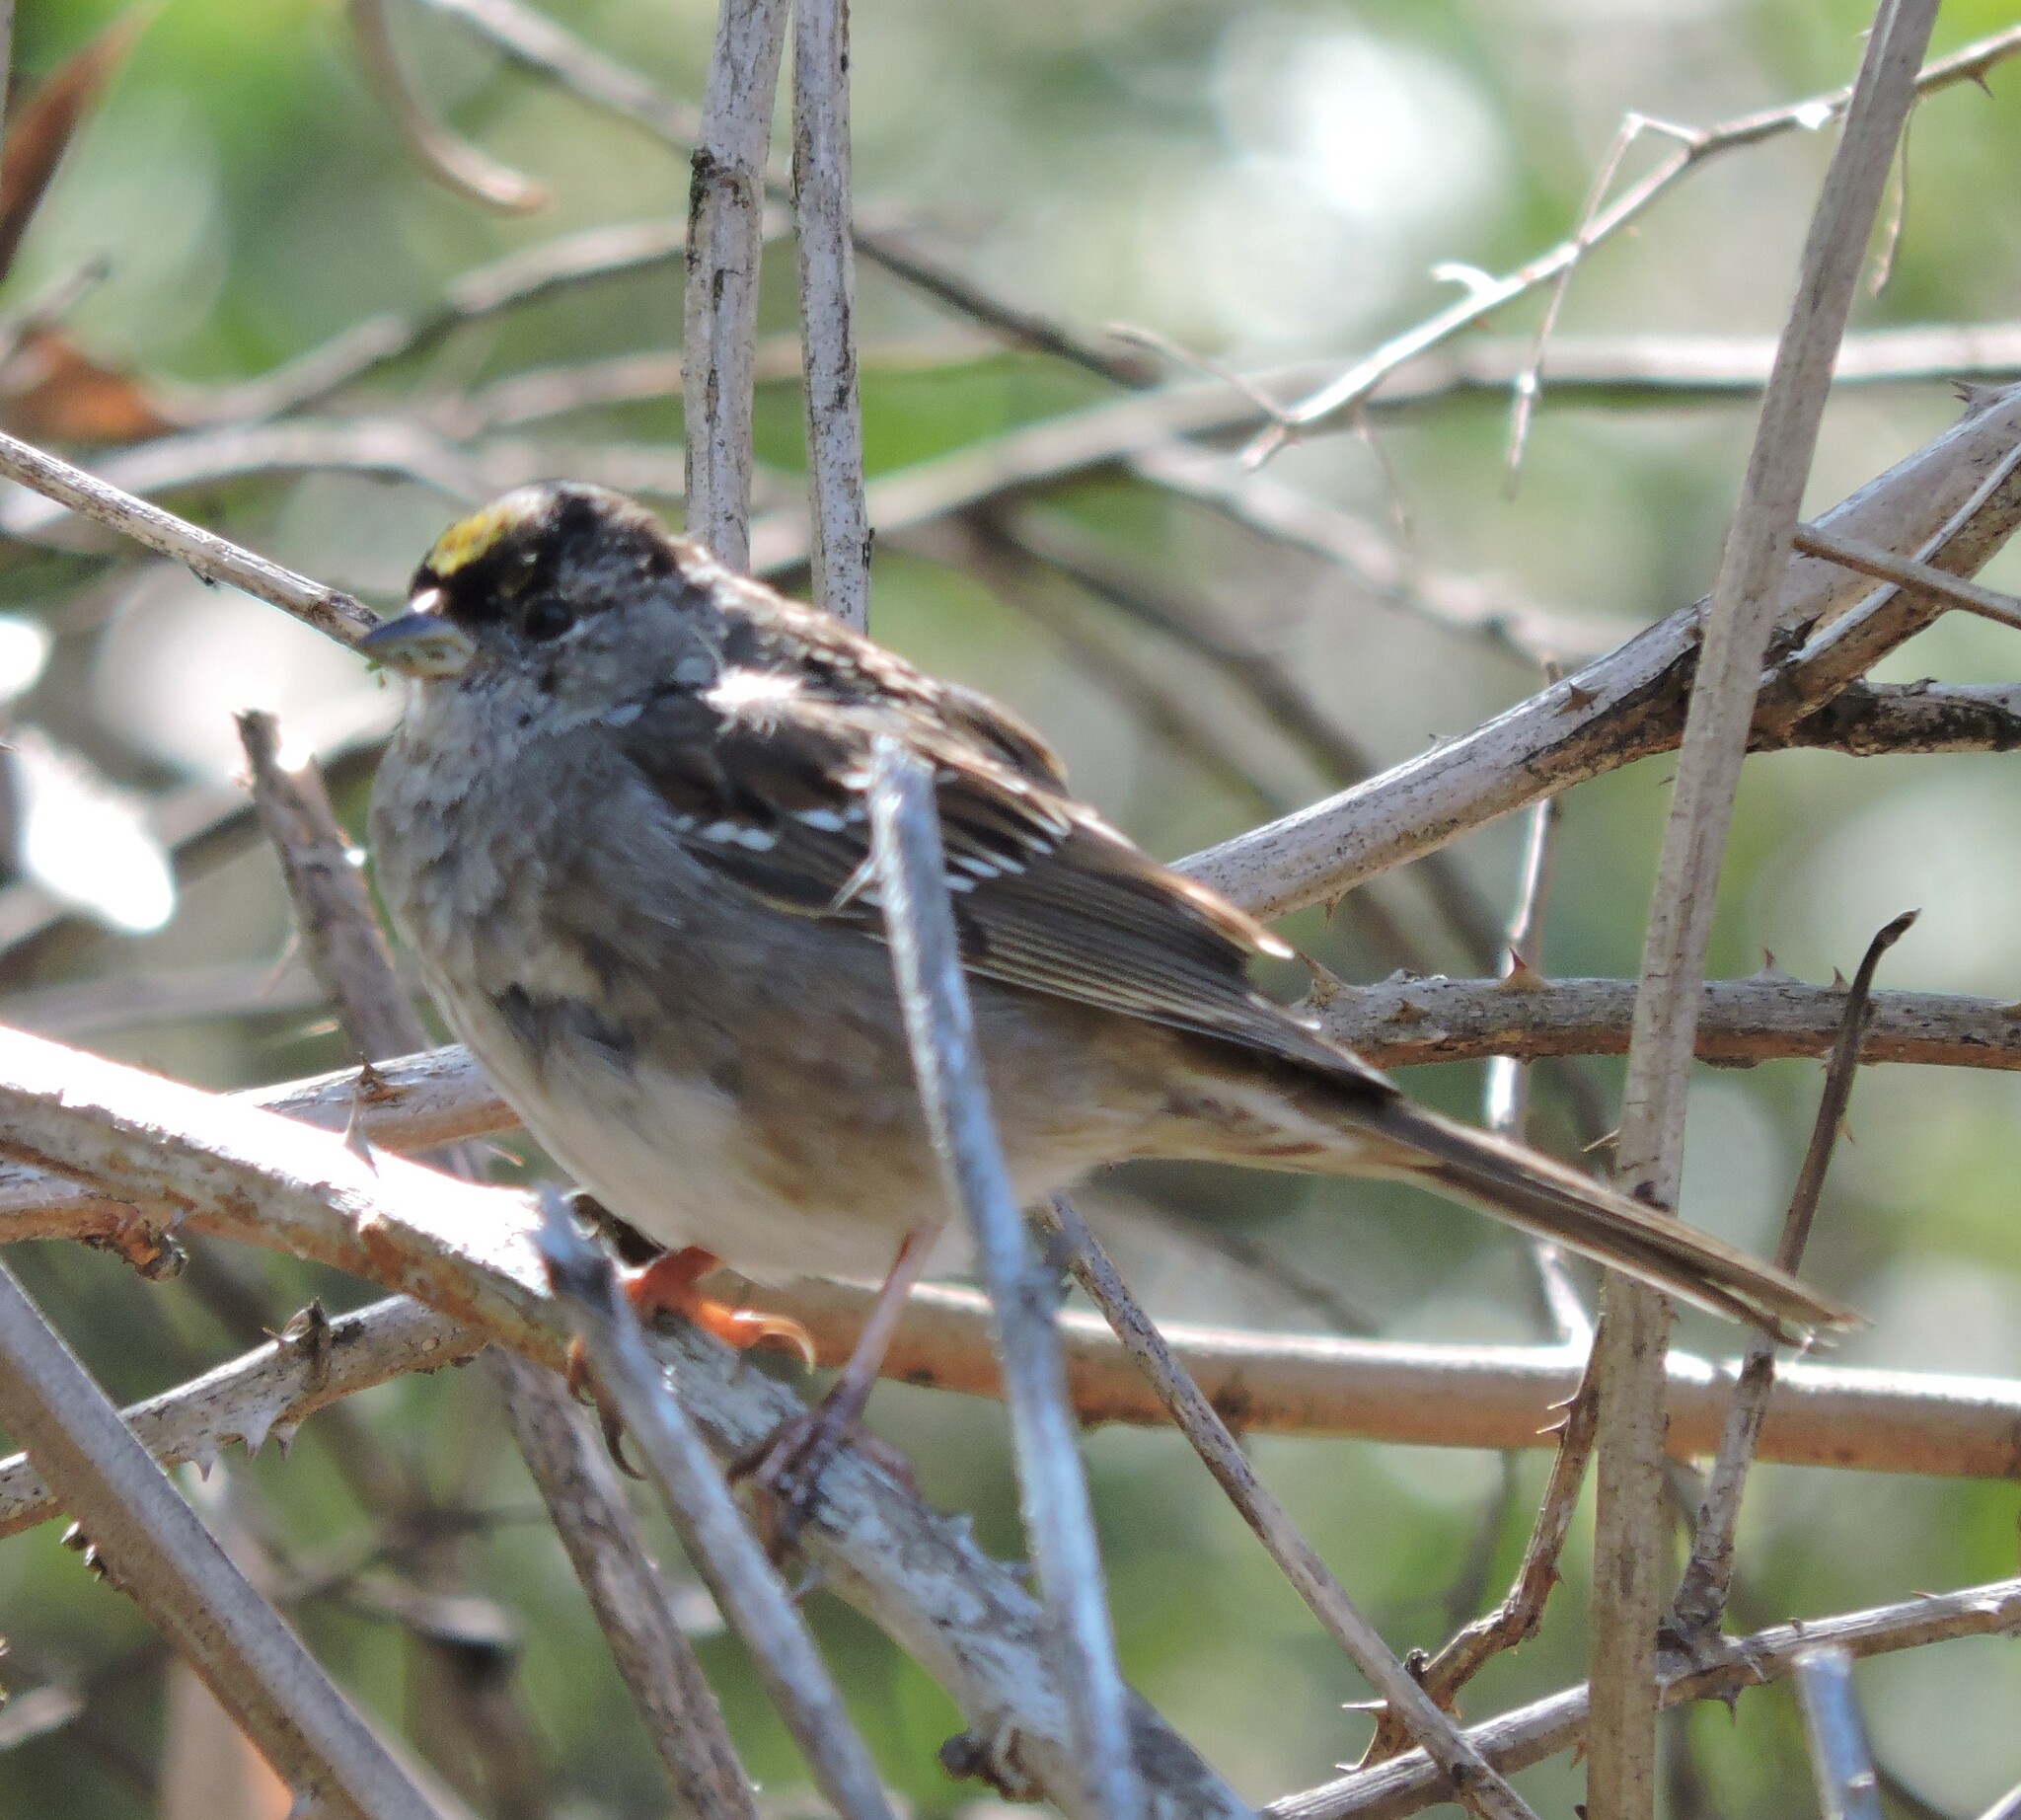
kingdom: Animalia
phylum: Chordata
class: Aves
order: Passeriformes
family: Passerellidae
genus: Zonotrichia
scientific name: Zonotrichia atricapilla
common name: Golden-crowned sparrow
